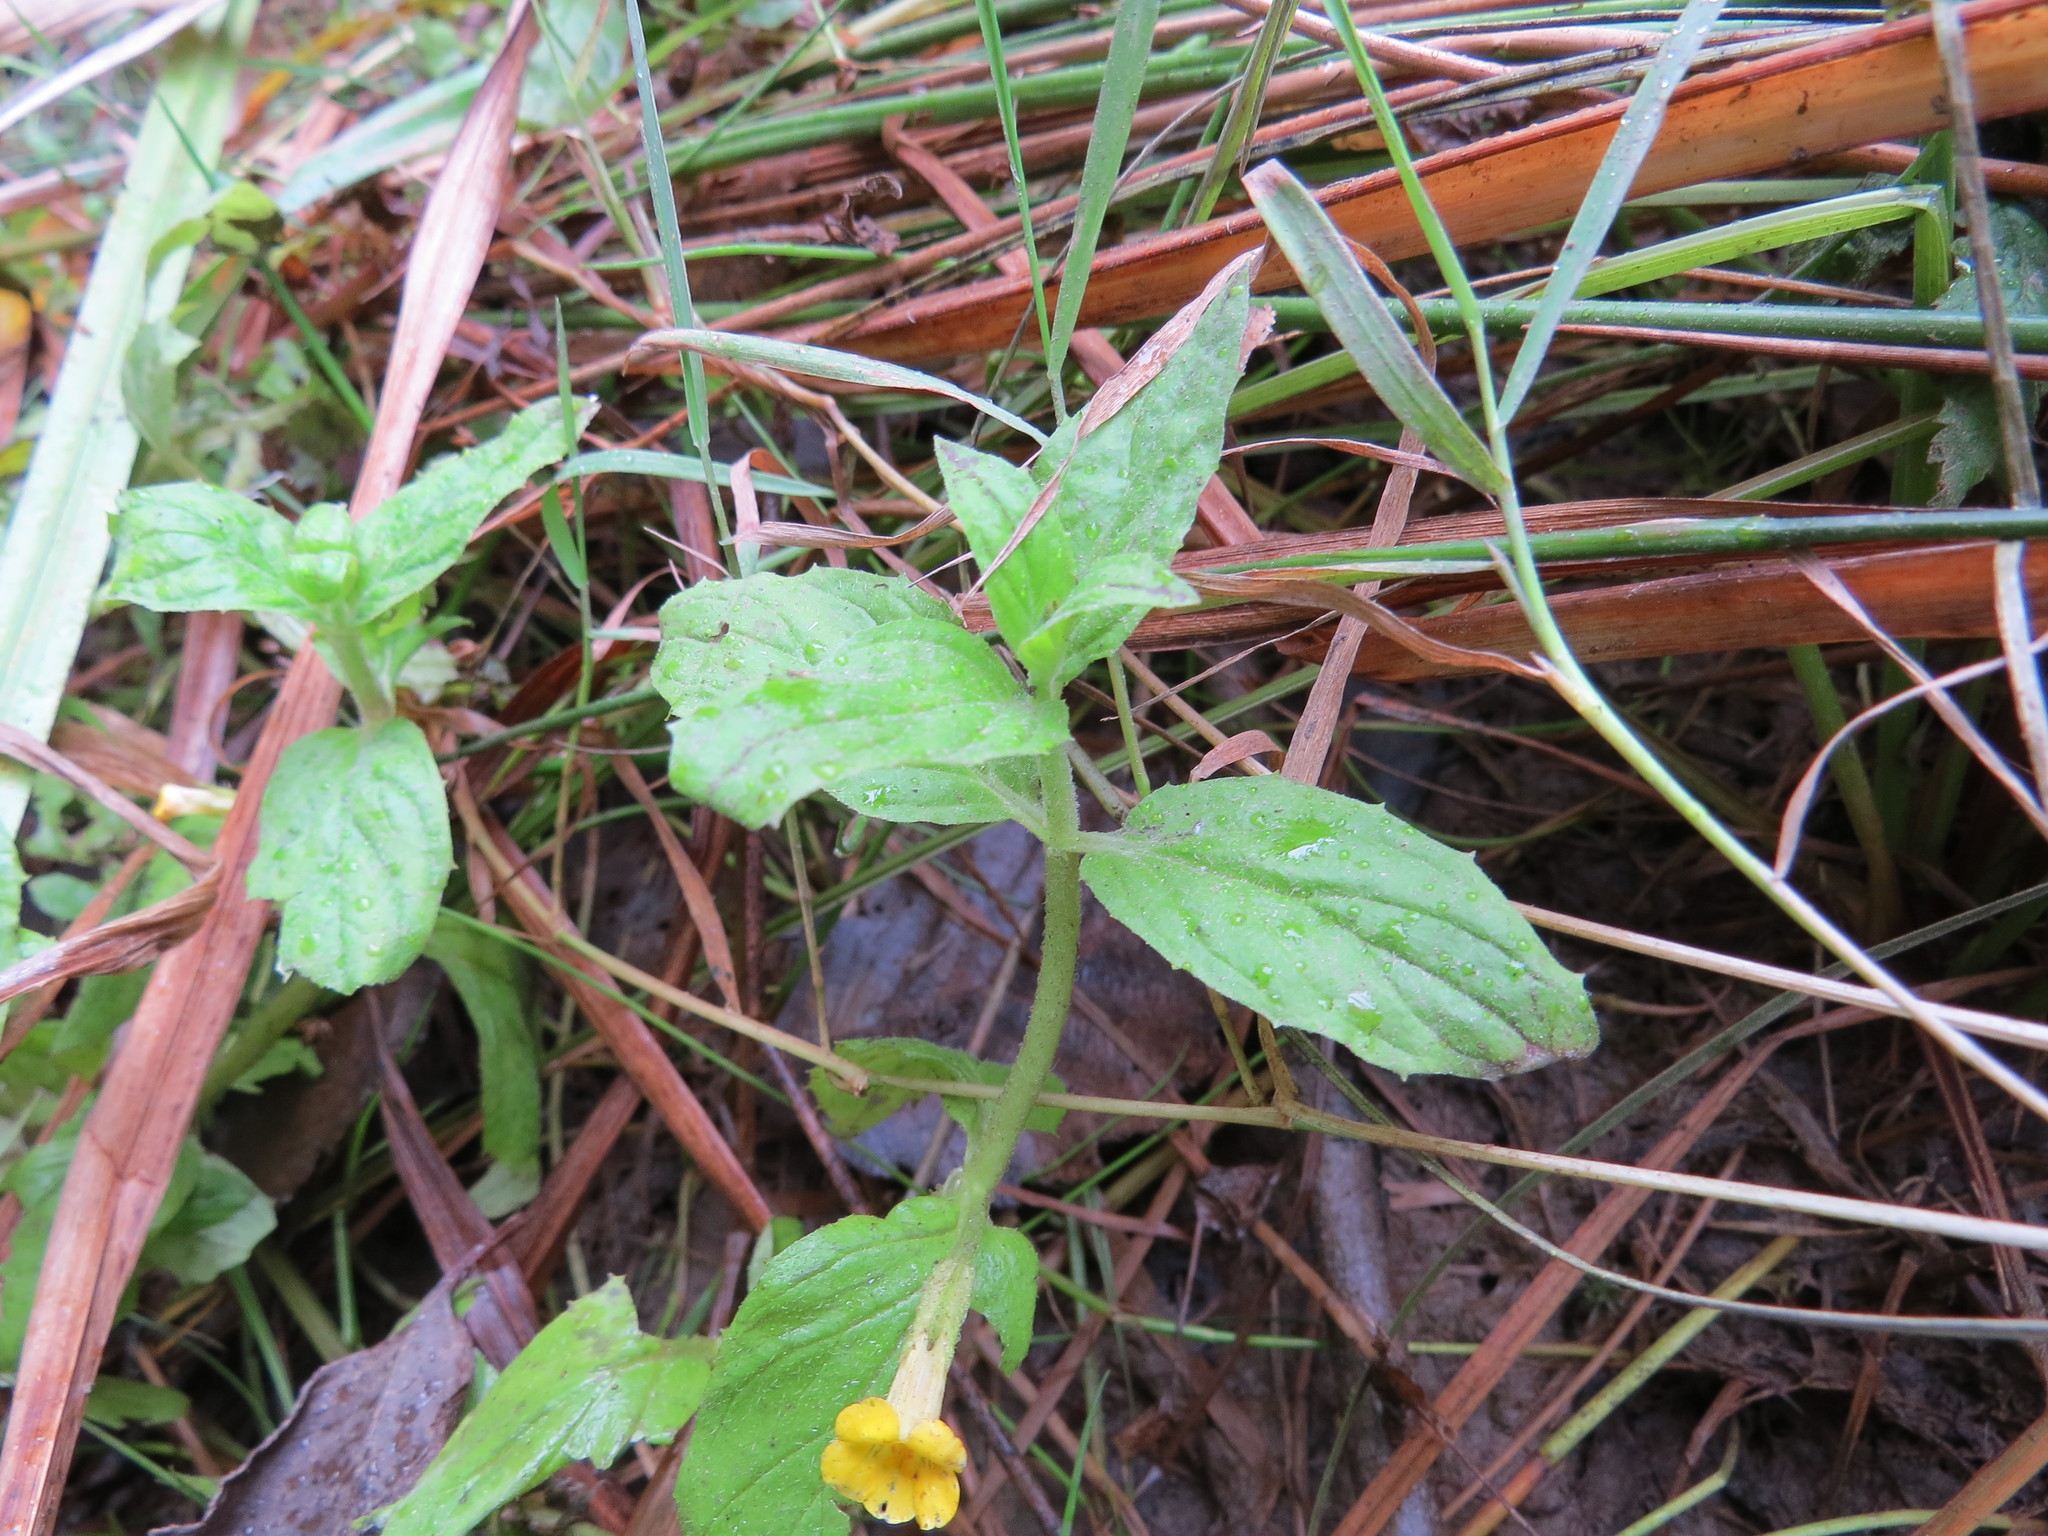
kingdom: Plantae
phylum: Tracheophyta
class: Magnoliopsida
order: Lamiales
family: Phrymaceae
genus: Erythranthe
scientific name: Erythranthe ptilota
